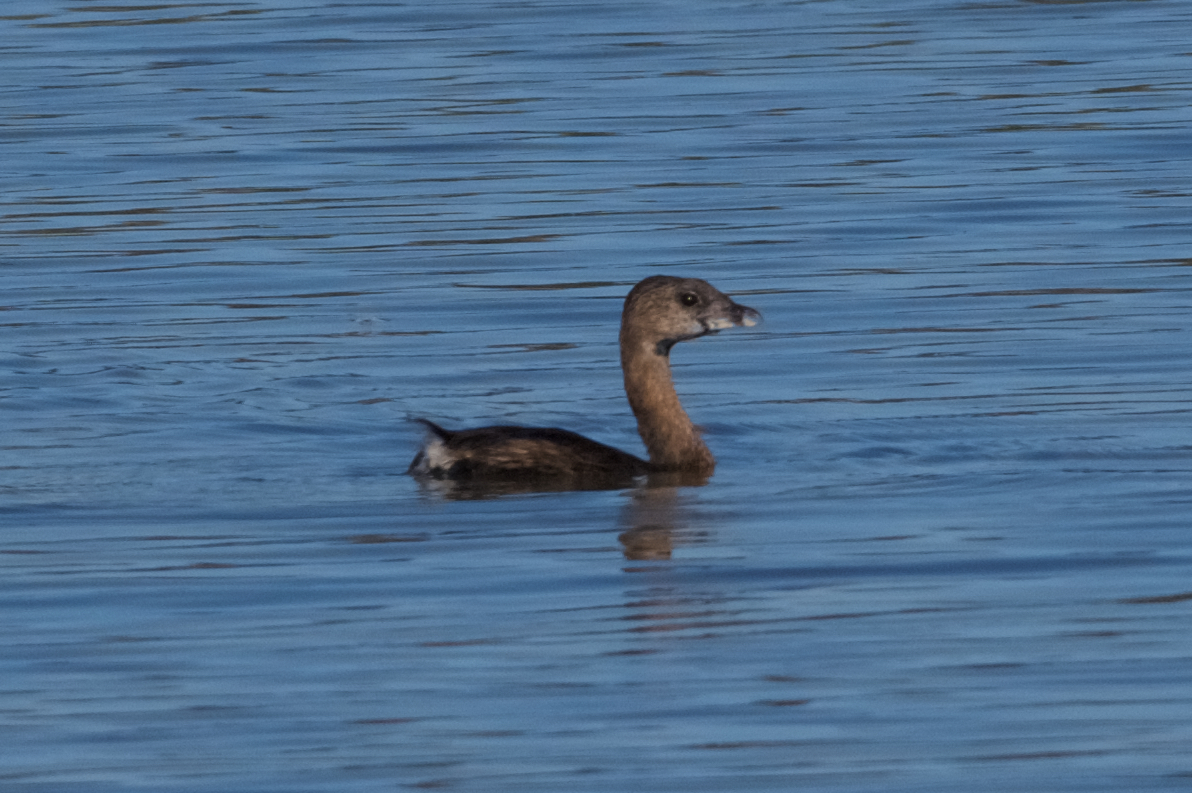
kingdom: Animalia
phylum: Chordata
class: Aves
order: Podicipediformes
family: Podicipedidae
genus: Podilymbus
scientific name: Podilymbus podiceps
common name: Pied-billed grebe
